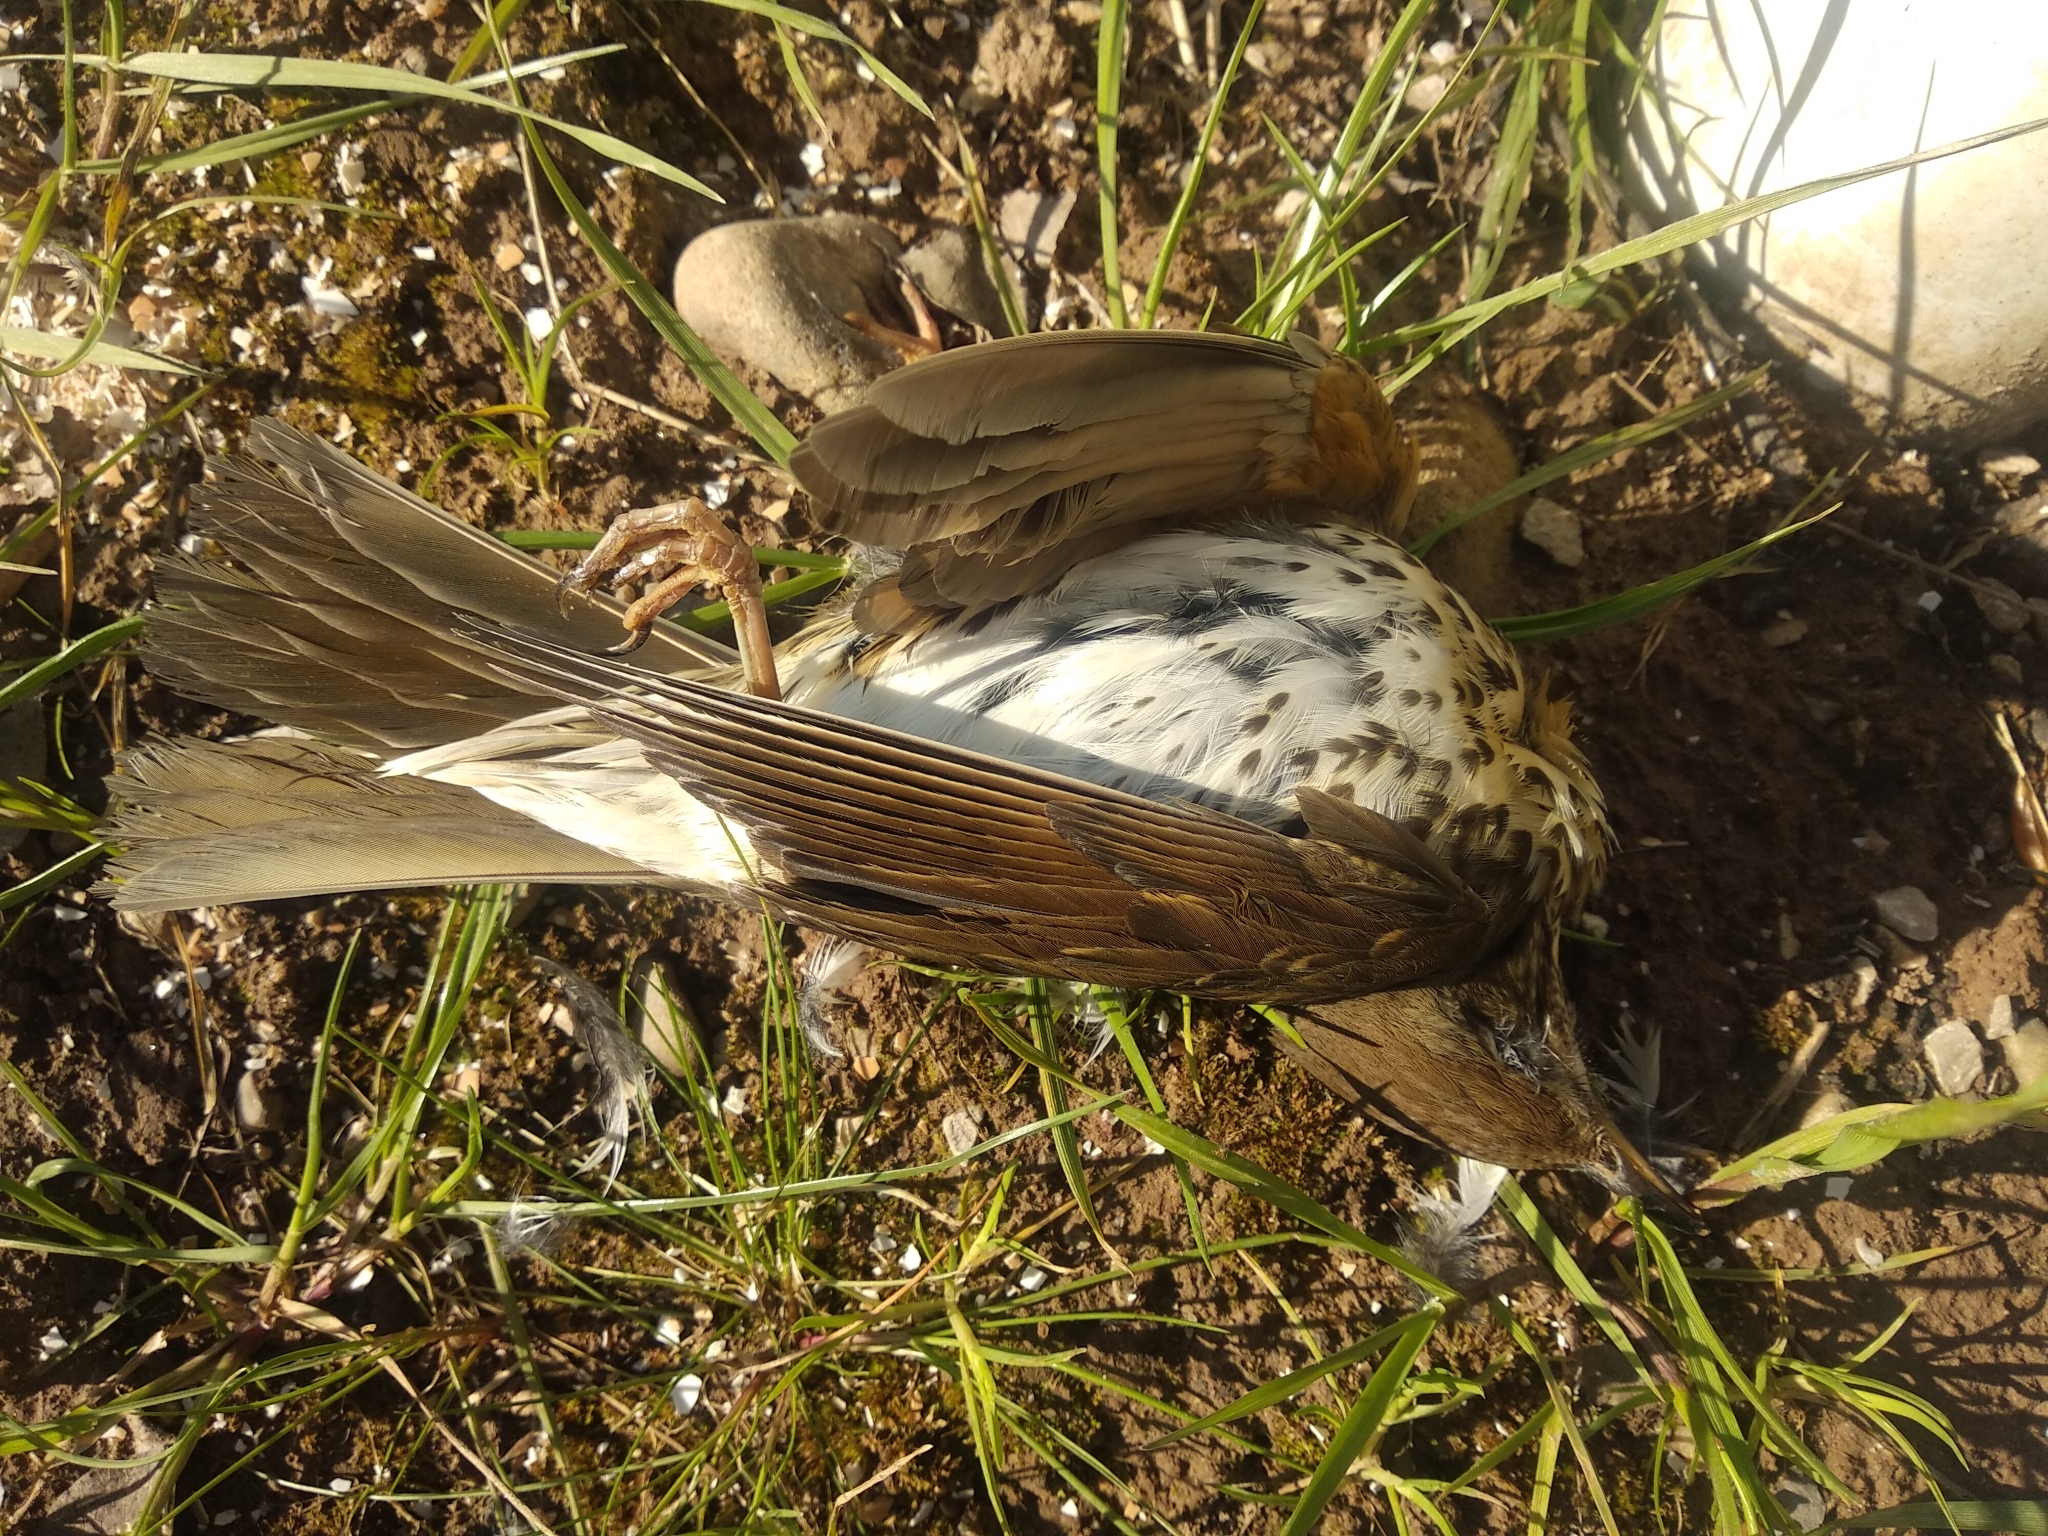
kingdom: Animalia
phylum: Chordata
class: Aves
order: Passeriformes
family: Turdidae
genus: Turdus
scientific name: Turdus philomelos
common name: Song thrush
